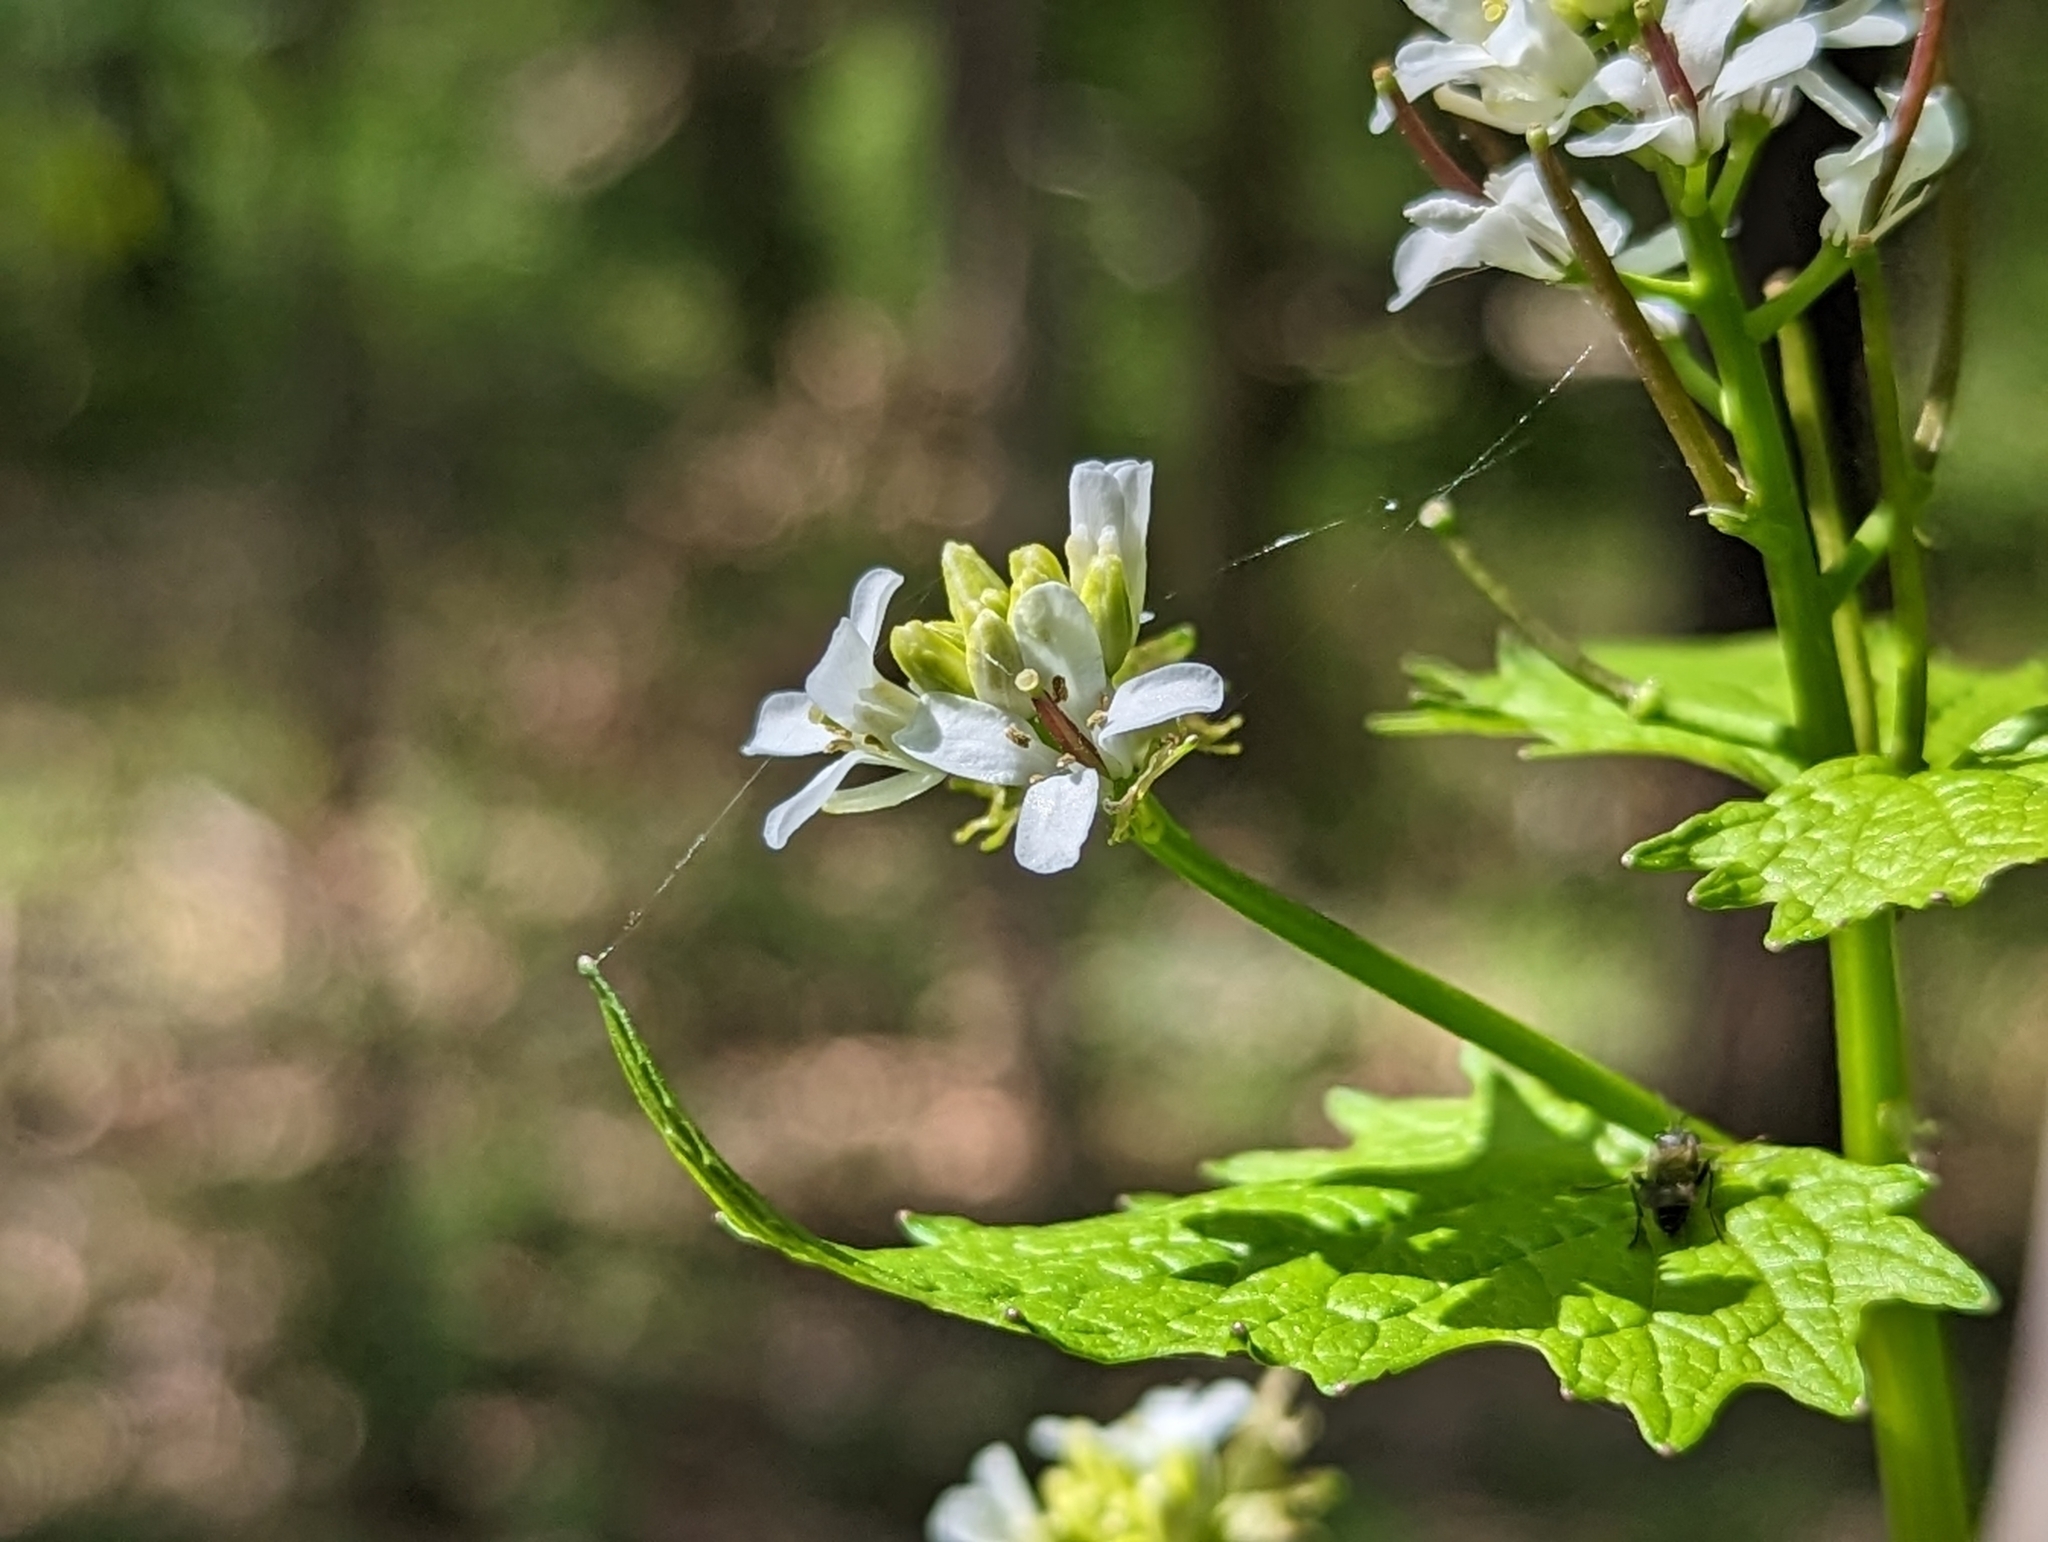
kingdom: Plantae
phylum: Tracheophyta
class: Magnoliopsida
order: Brassicales
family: Brassicaceae
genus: Alliaria
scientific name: Alliaria petiolata
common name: Garlic mustard
